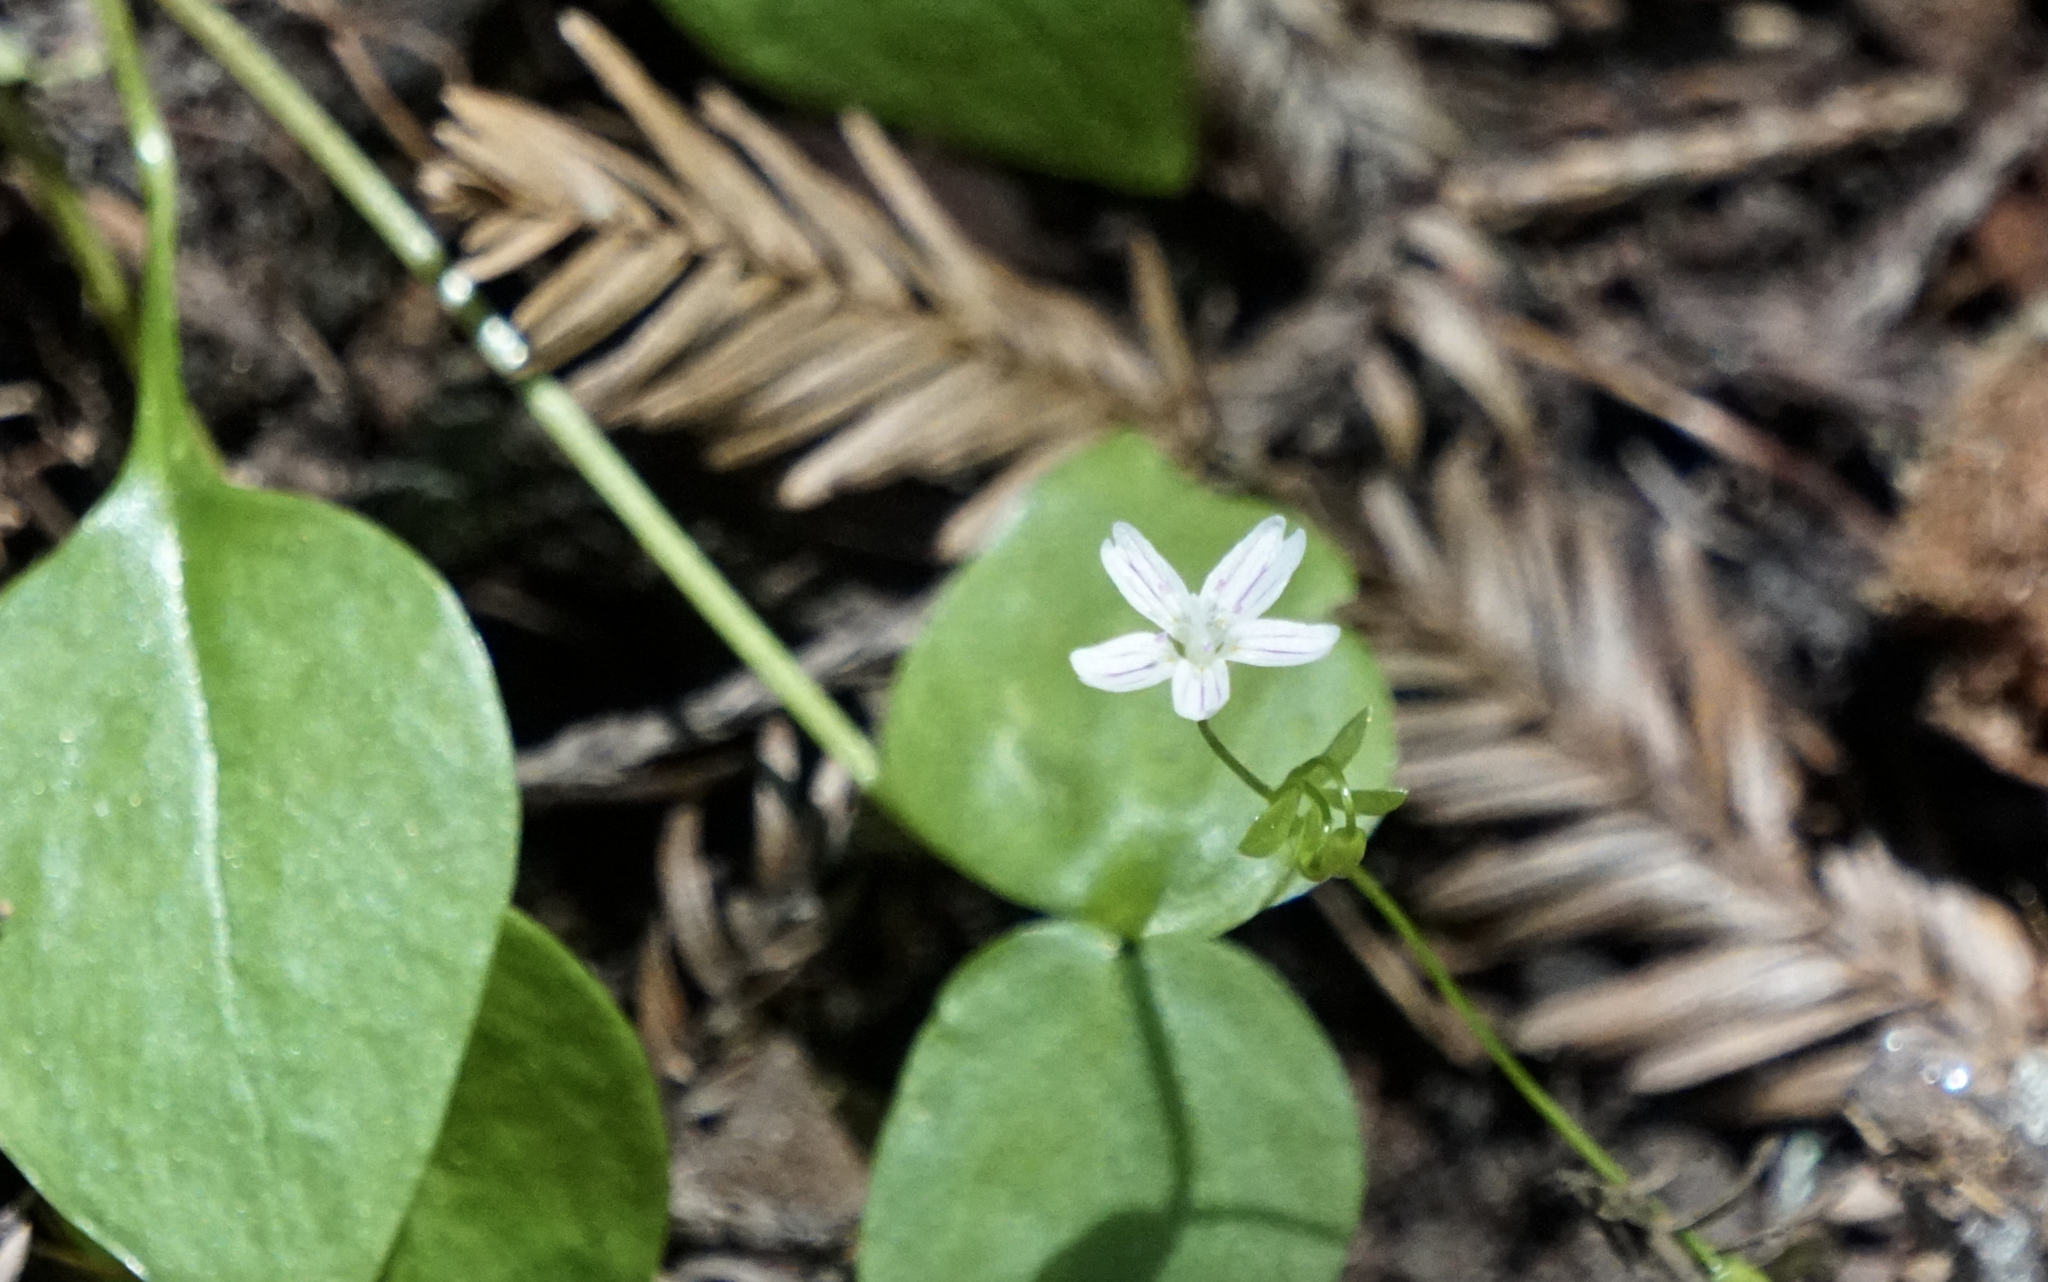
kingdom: Plantae
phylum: Tracheophyta
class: Magnoliopsida
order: Caryophyllales
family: Montiaceae
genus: Claytonia
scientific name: Claytonia sibirica
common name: Pink purslane
